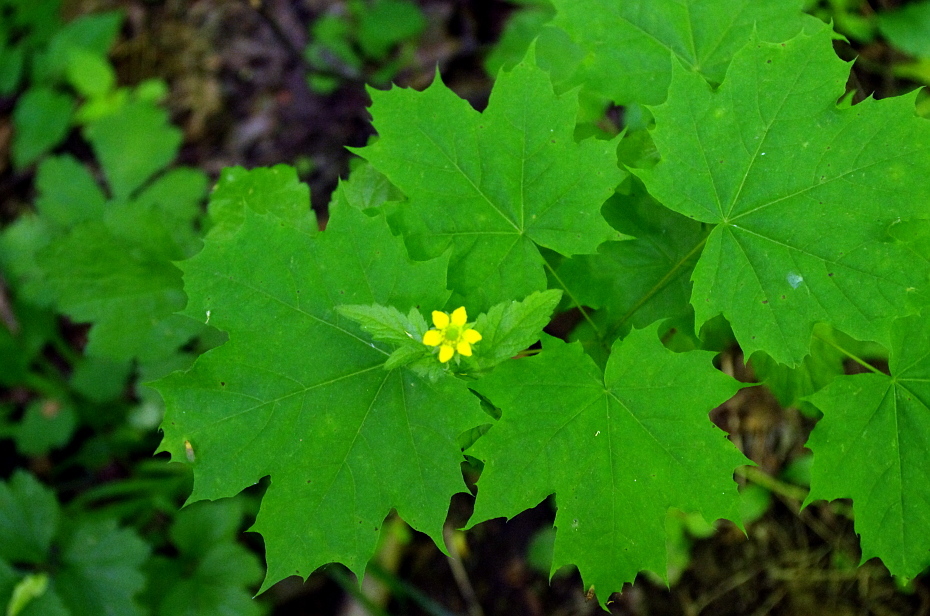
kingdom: Plantae
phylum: Tracheophyta
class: Magnoliopsida
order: Rosales
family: Rosaceae
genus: Geum
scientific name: Geum urbanum
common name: Wood avens
